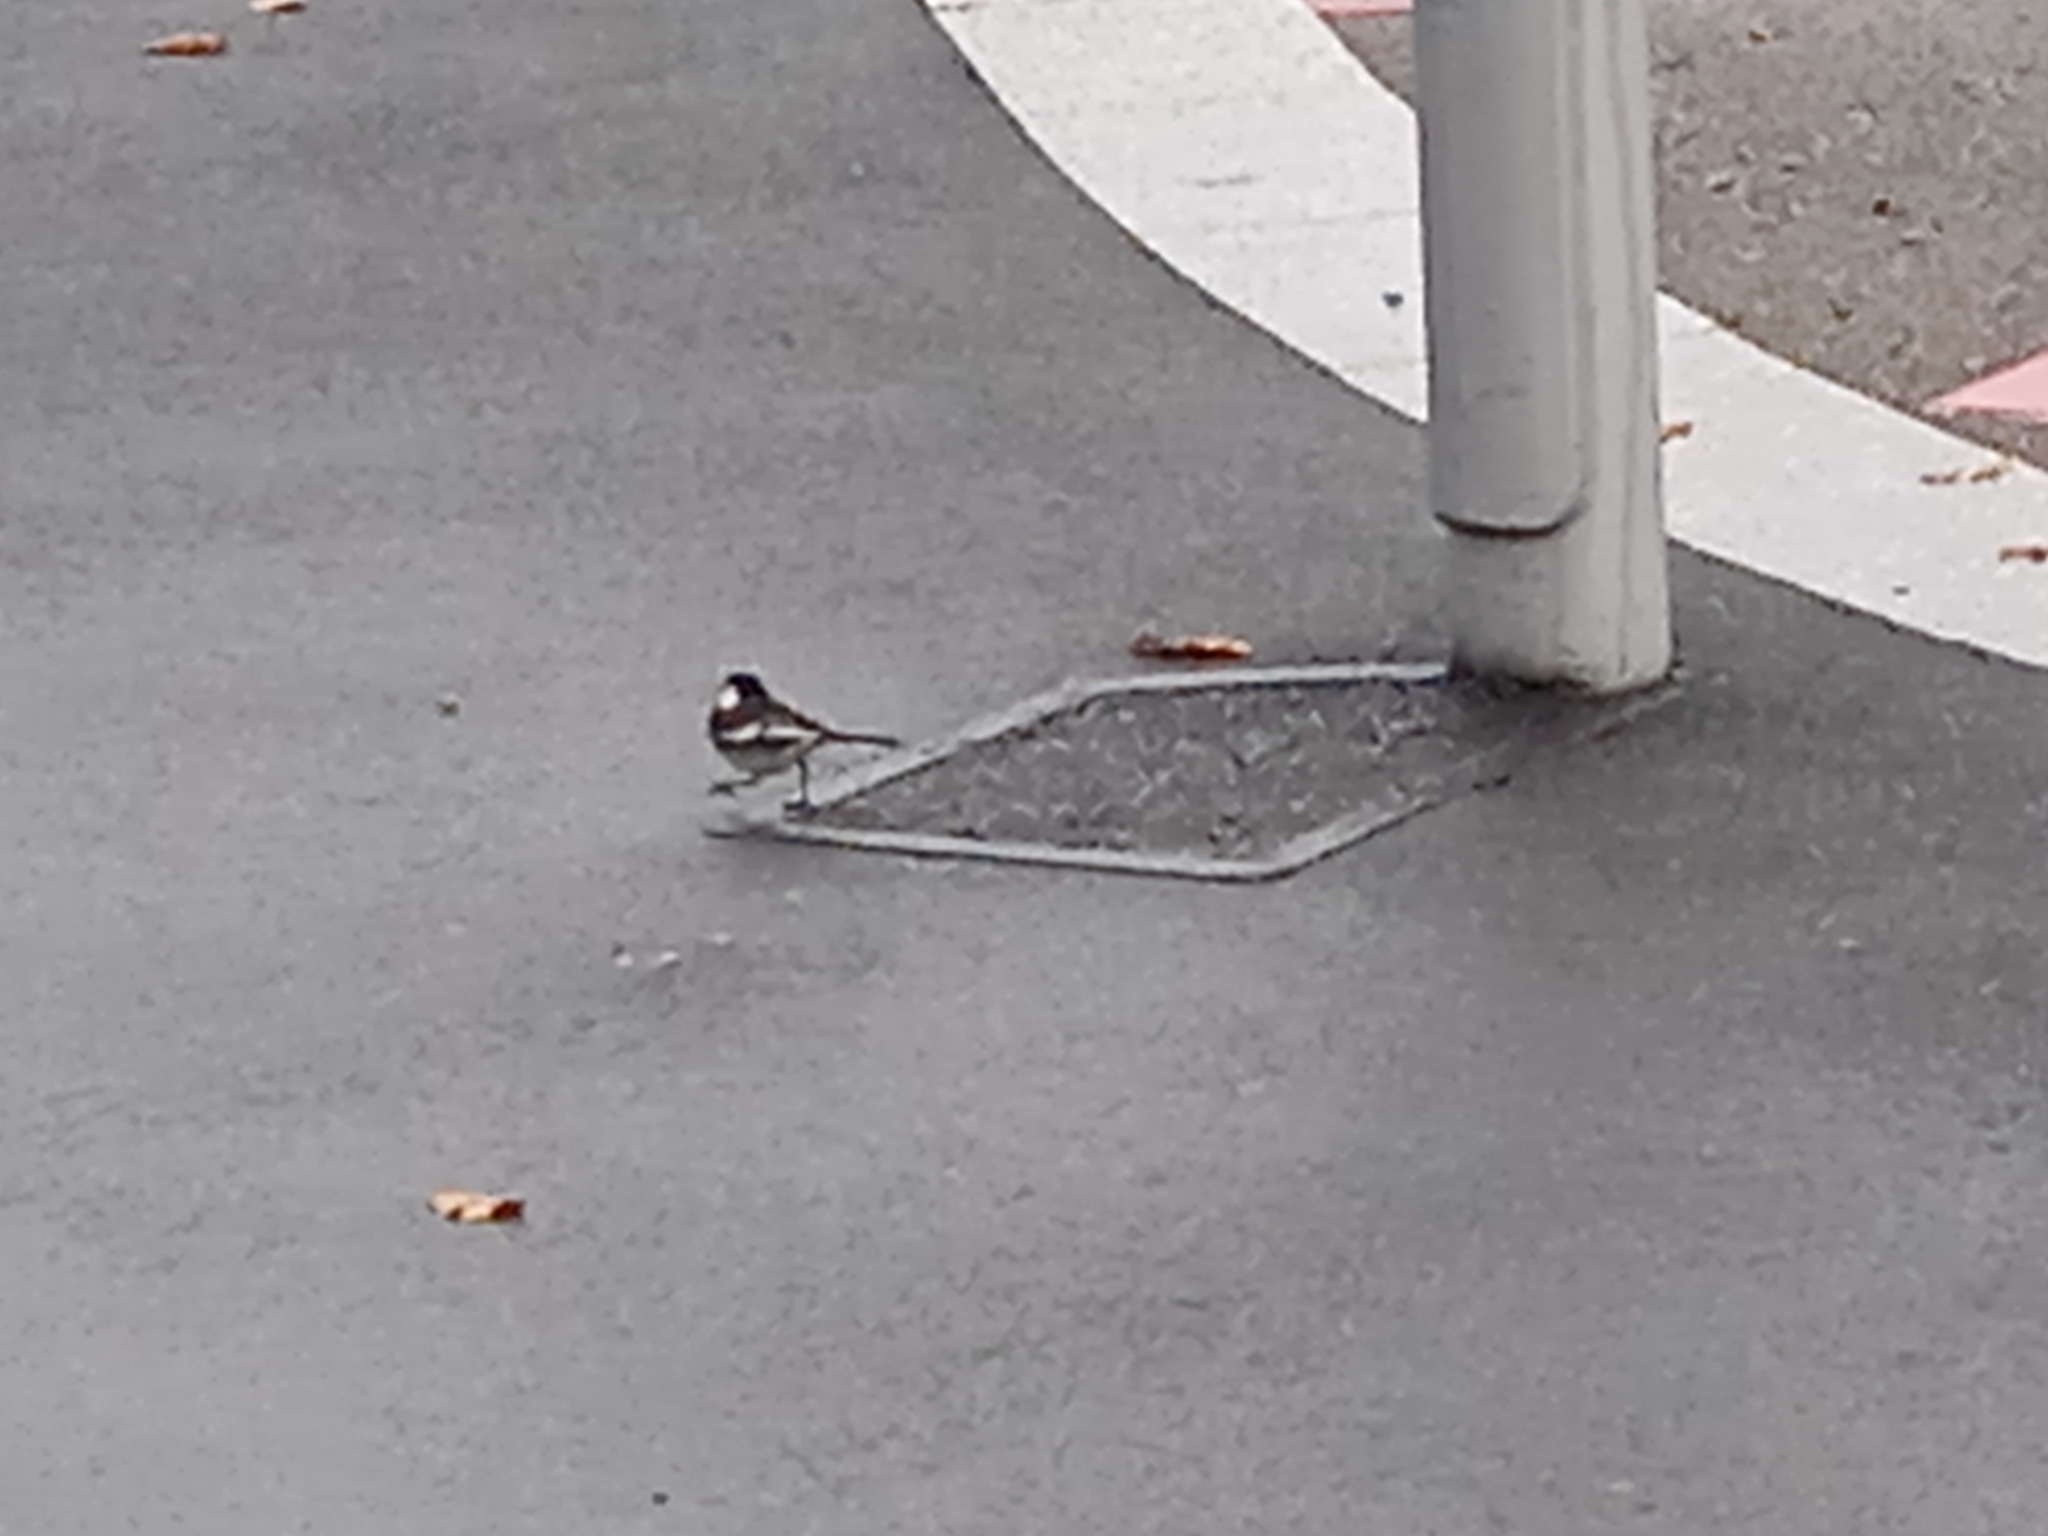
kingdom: Animalia
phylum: Chordata
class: Aves
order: Passeriformes
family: Motacillidae
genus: Motacilla
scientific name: Motacilla alba
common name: White wagtail
